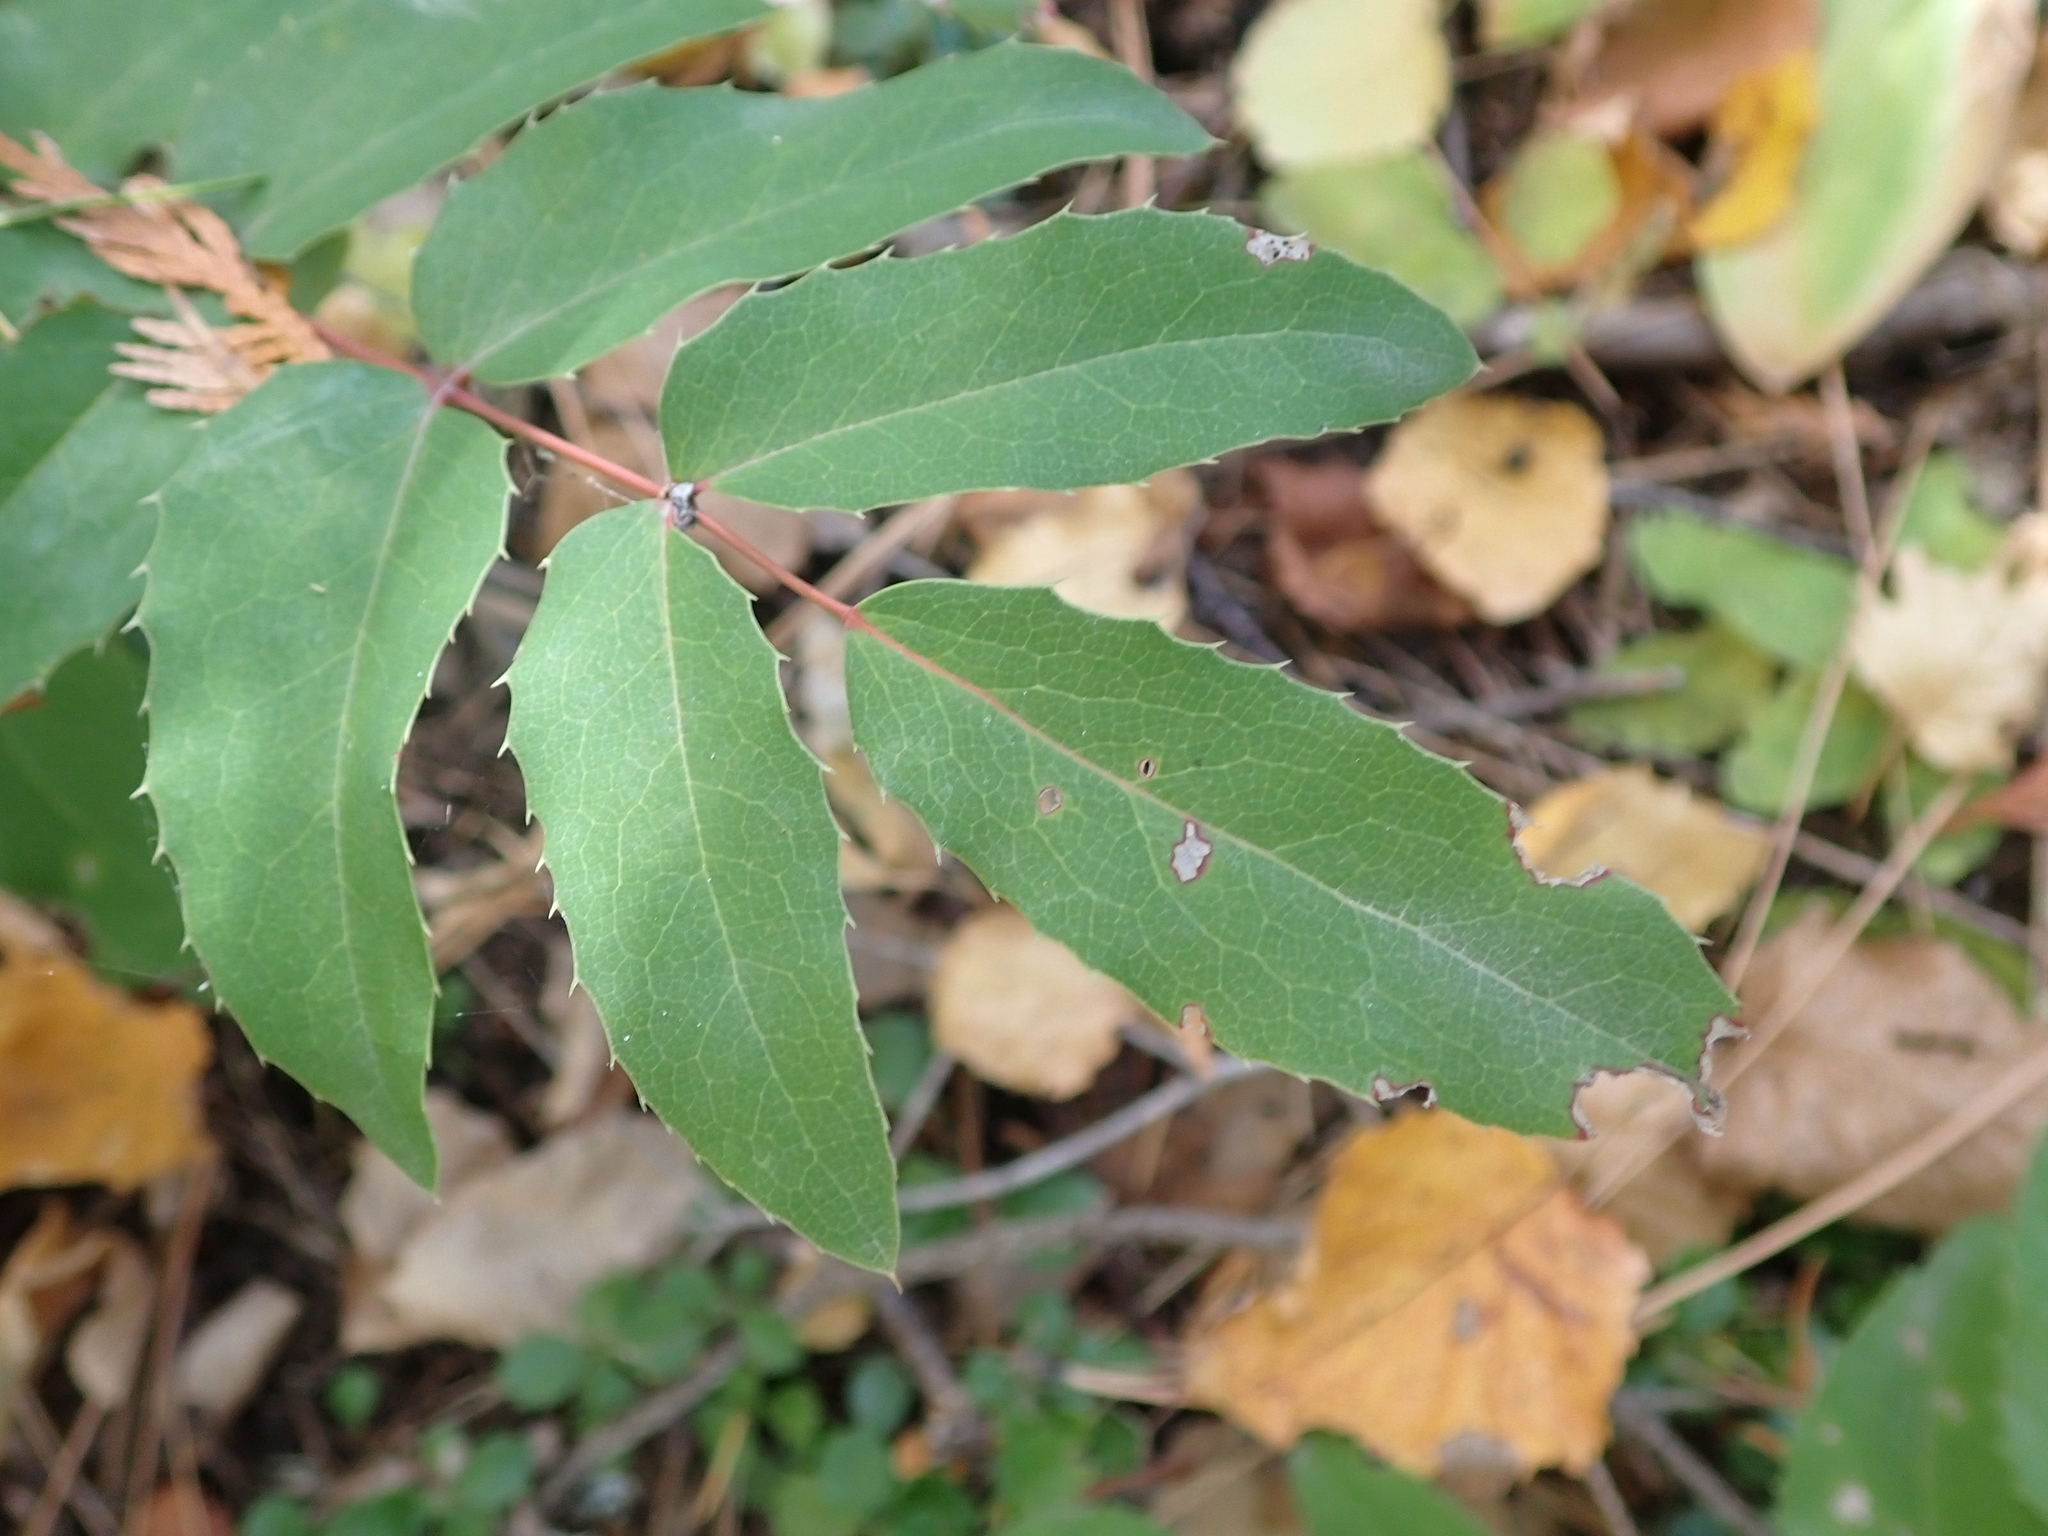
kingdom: Plantae
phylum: Tracheophyta
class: Magnoliopsida
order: Ranunculales
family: Berberidaceae
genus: Mahonia
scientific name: Mahonia repens
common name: Creeping oregon-grape
